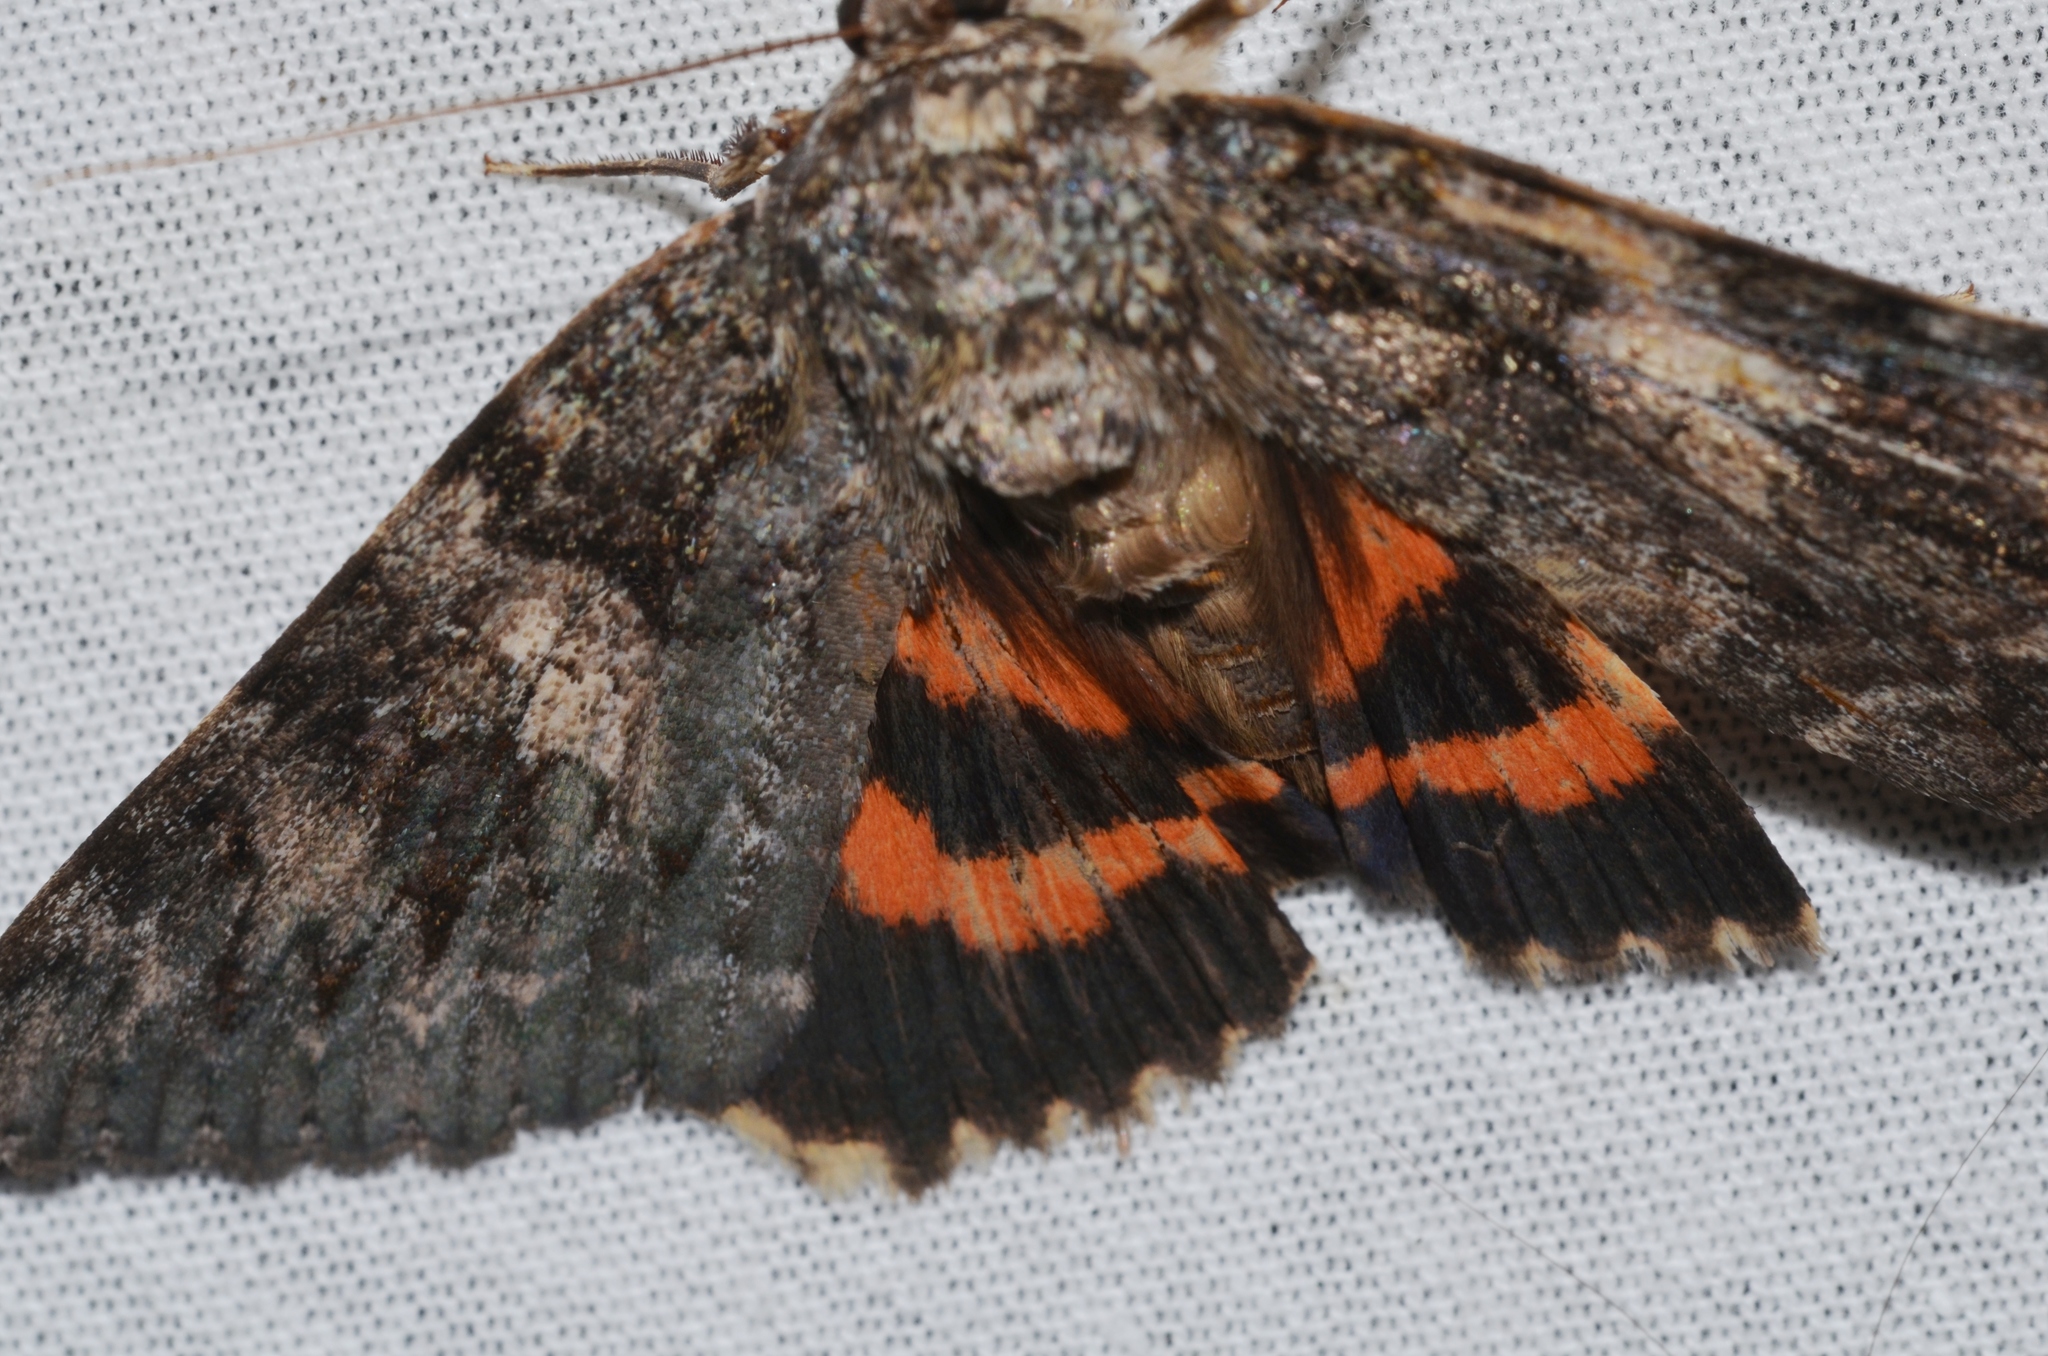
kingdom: Animalia
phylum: Arthropoda
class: Insecta
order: Lepidoptera
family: Erebidae
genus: Catocala
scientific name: Catocala ilia
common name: Ilia underwing
